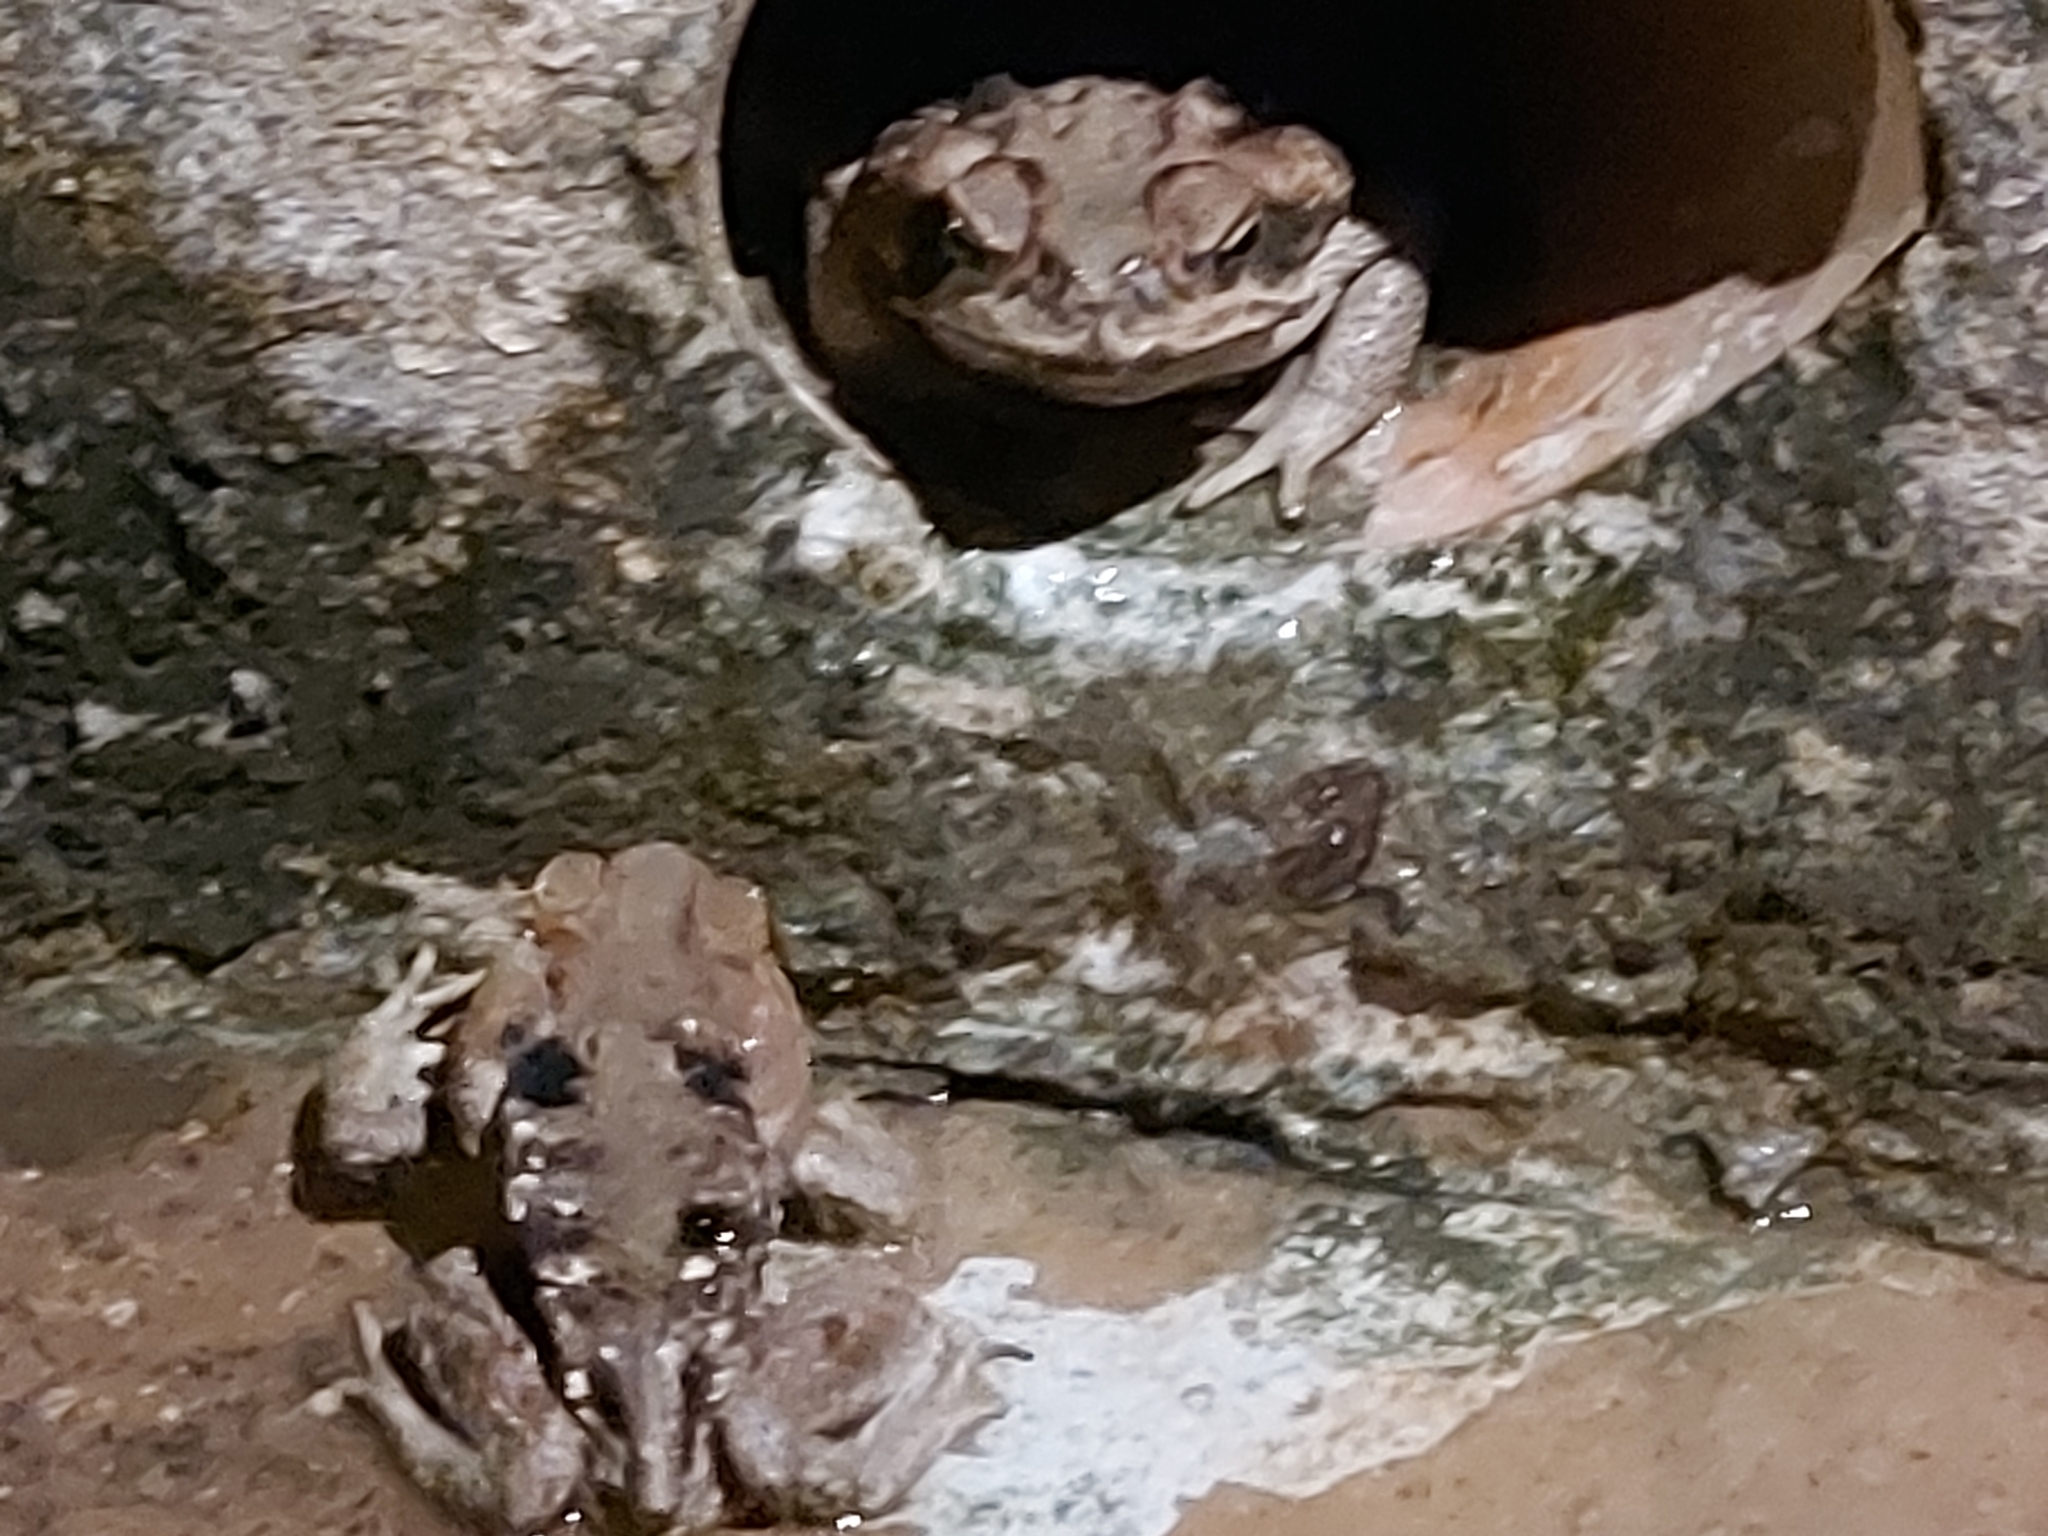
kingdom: Animalia
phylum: Chordata
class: Amphibia
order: Anura
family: Bufonidae
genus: Rhinella
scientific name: Rhinella diptycha
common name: Cope's toad
